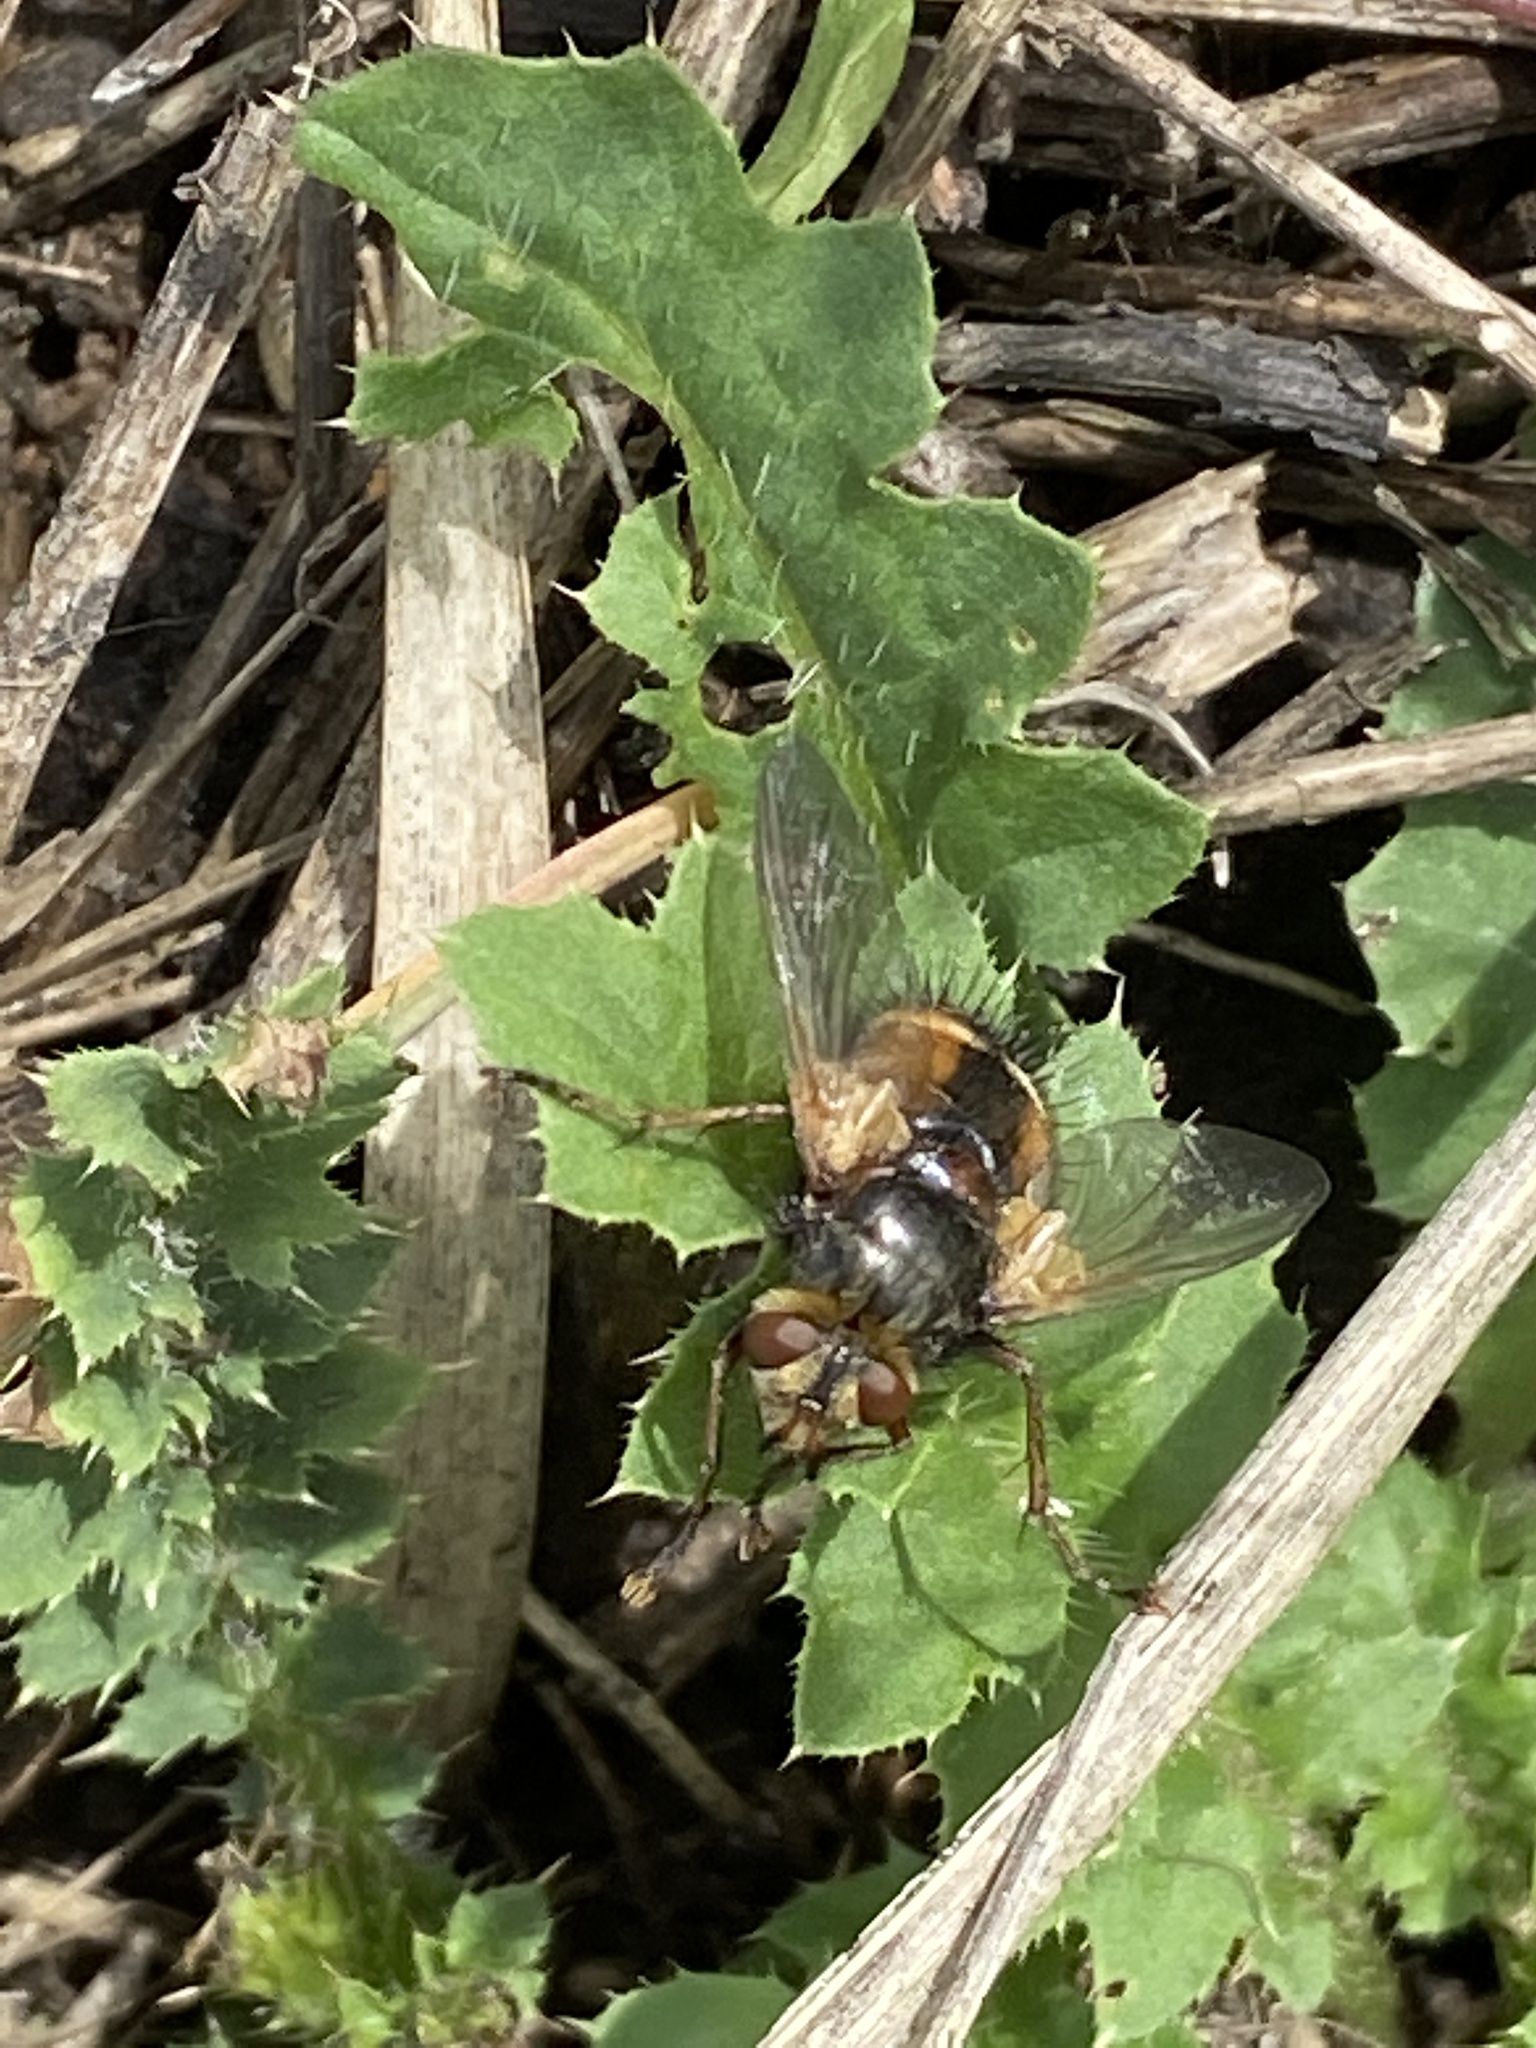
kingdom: Animalia
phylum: Arthropoda
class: Insecta
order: Diptera
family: Tachinidae
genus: Tachina
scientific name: Tachina fera
